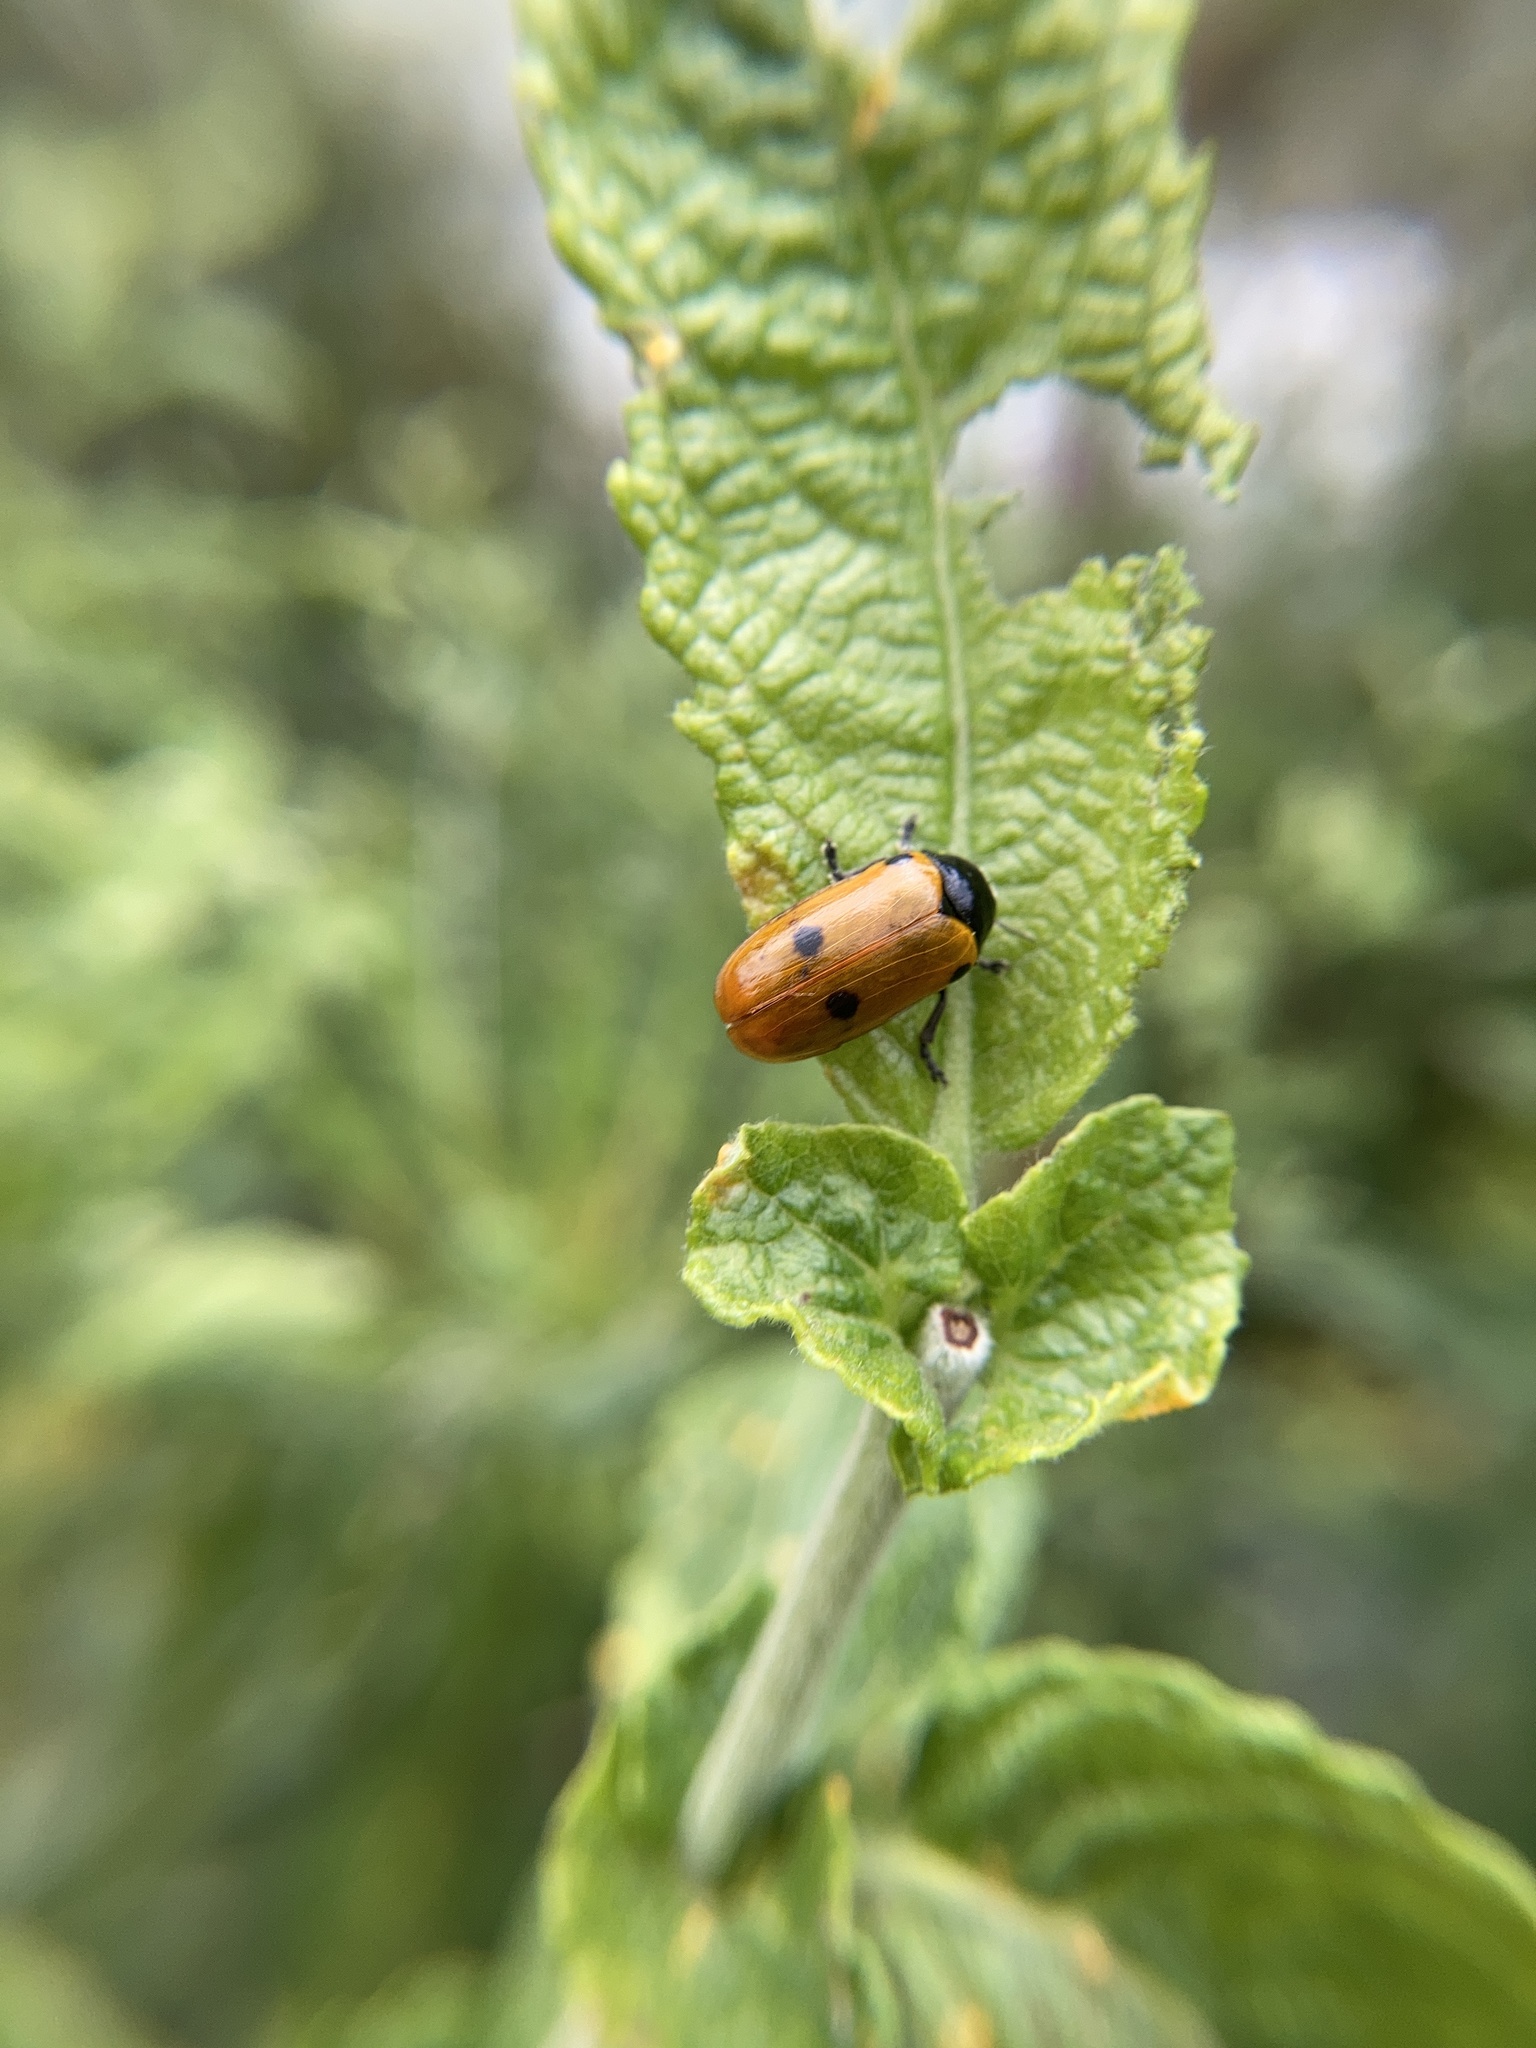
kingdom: Animalia
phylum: Arthropoda
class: Insecta
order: Coleoptera
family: Chrysomelidae
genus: Clytra
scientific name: Clytra quadripunctata
